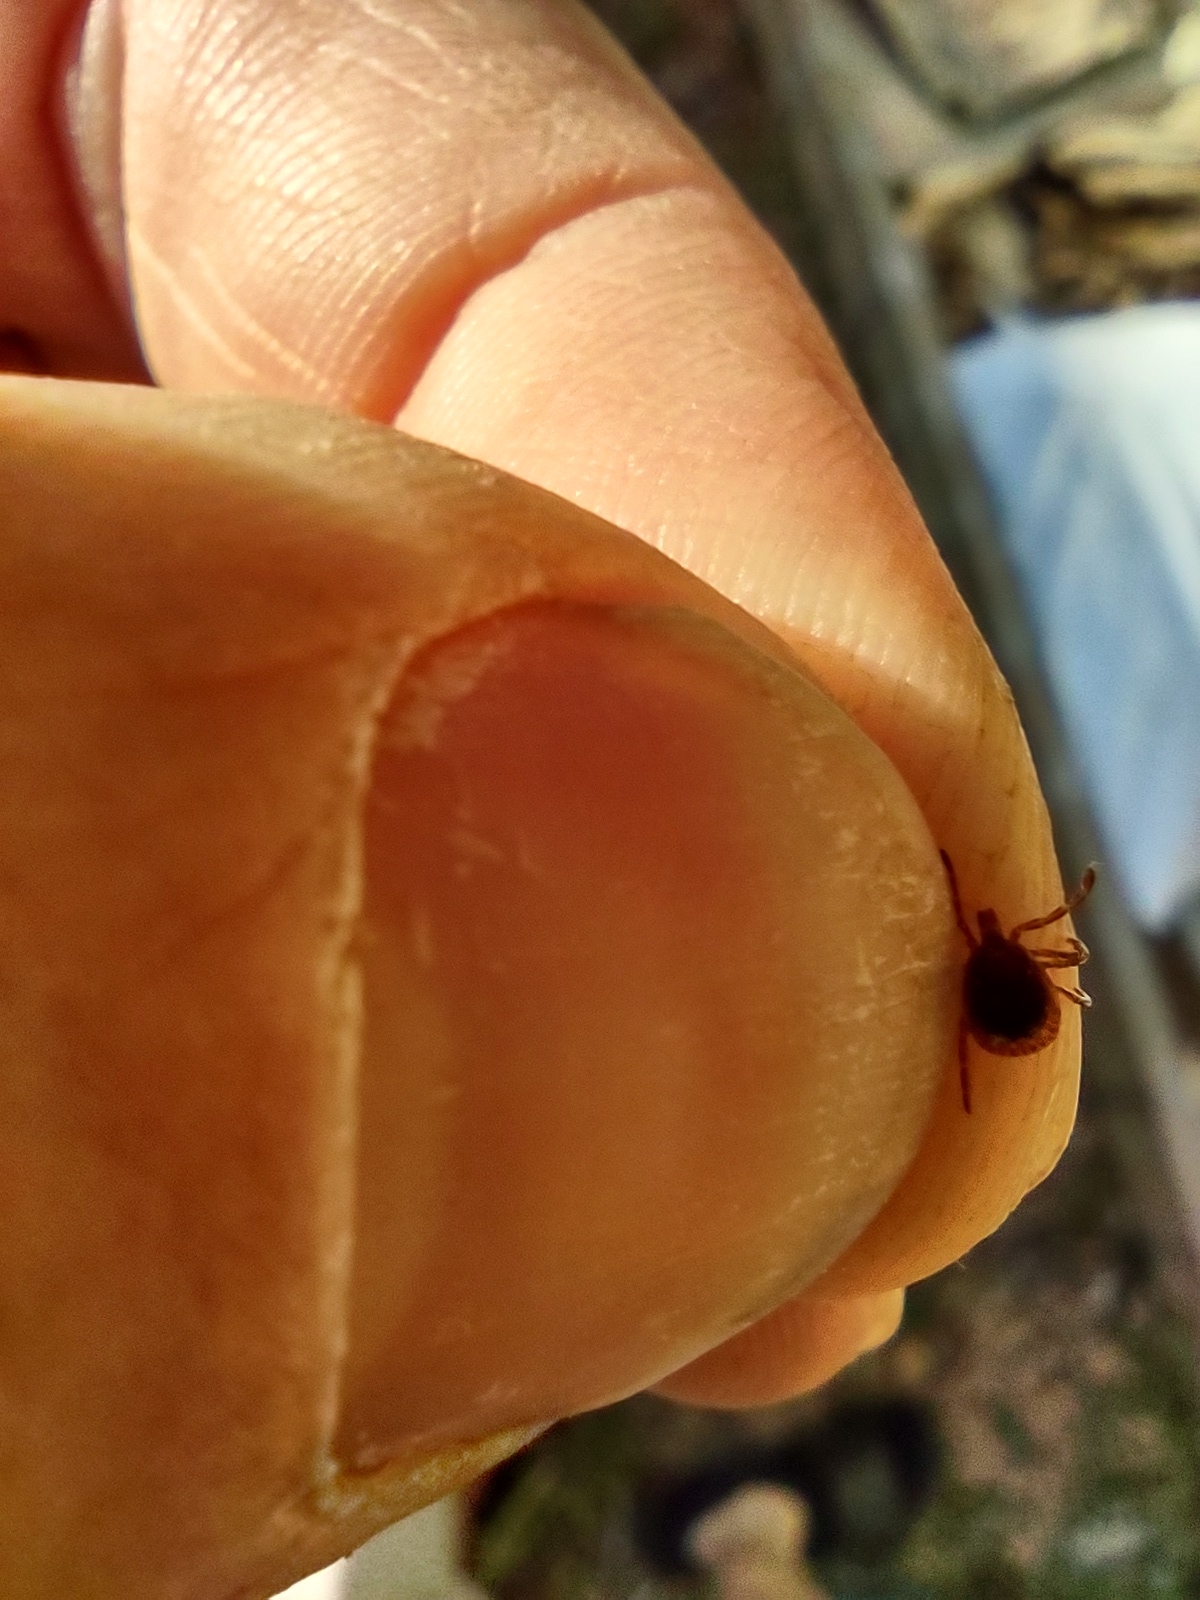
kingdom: Animalia
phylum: Arthropoda
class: Arachnida
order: Ixodida
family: Ixodidae
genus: Amblyomma
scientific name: Amblyomma americanum
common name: Lone star tick
